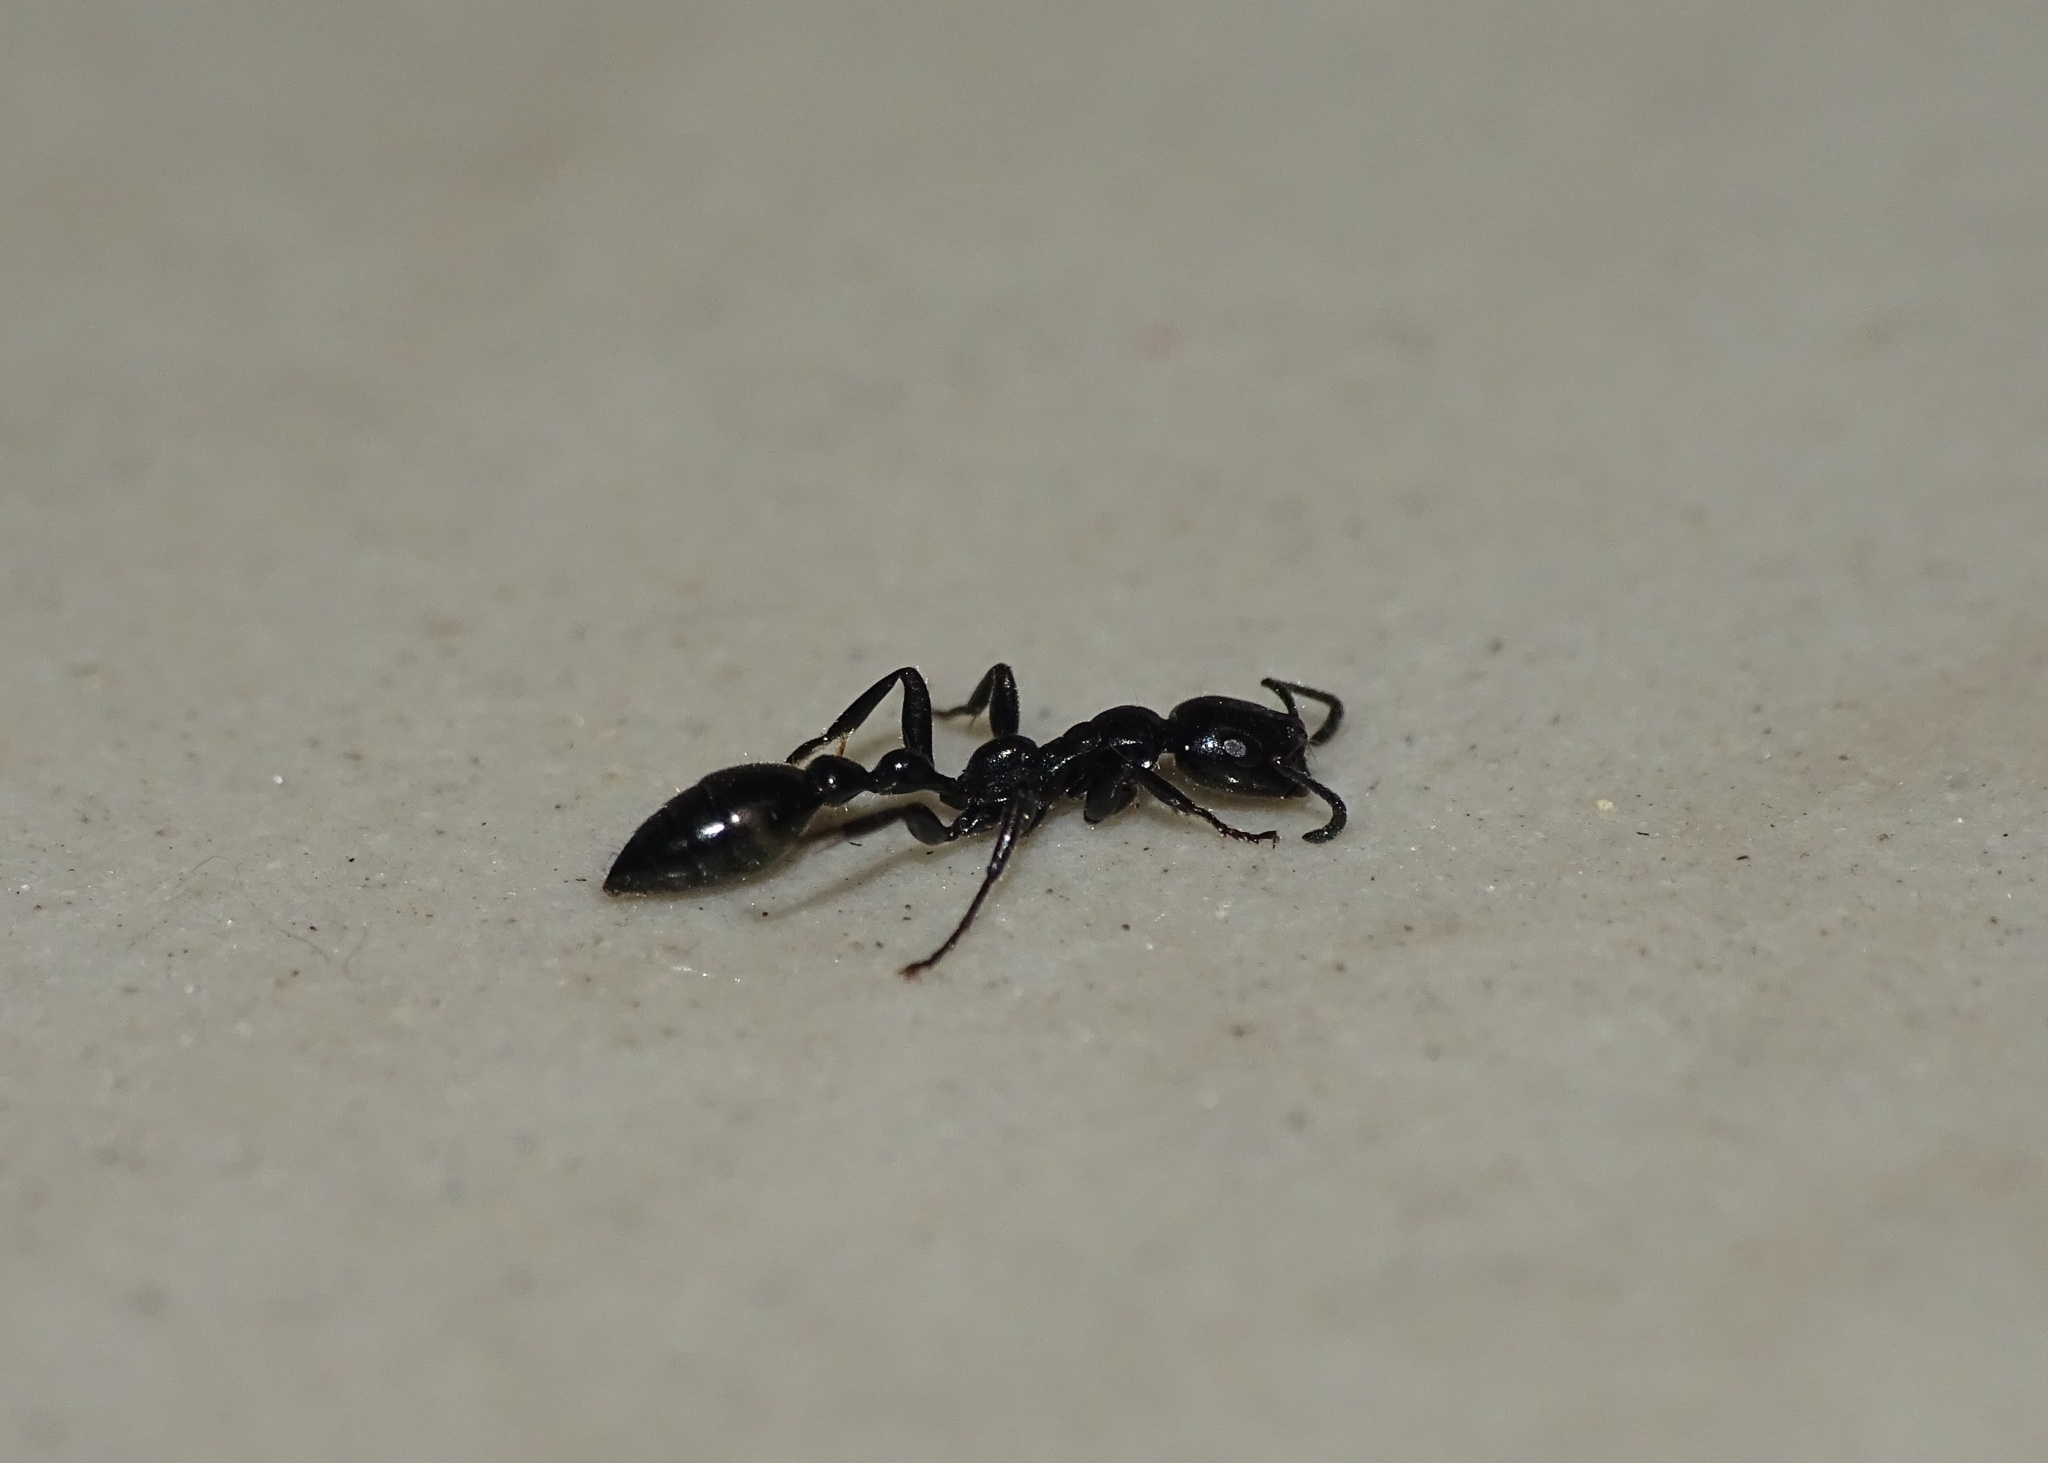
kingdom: Animalia
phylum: Arthropoda
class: Insecta
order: Hymenoptera
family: Formicidae
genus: Tetraponera
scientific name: Tetraponera nigra
